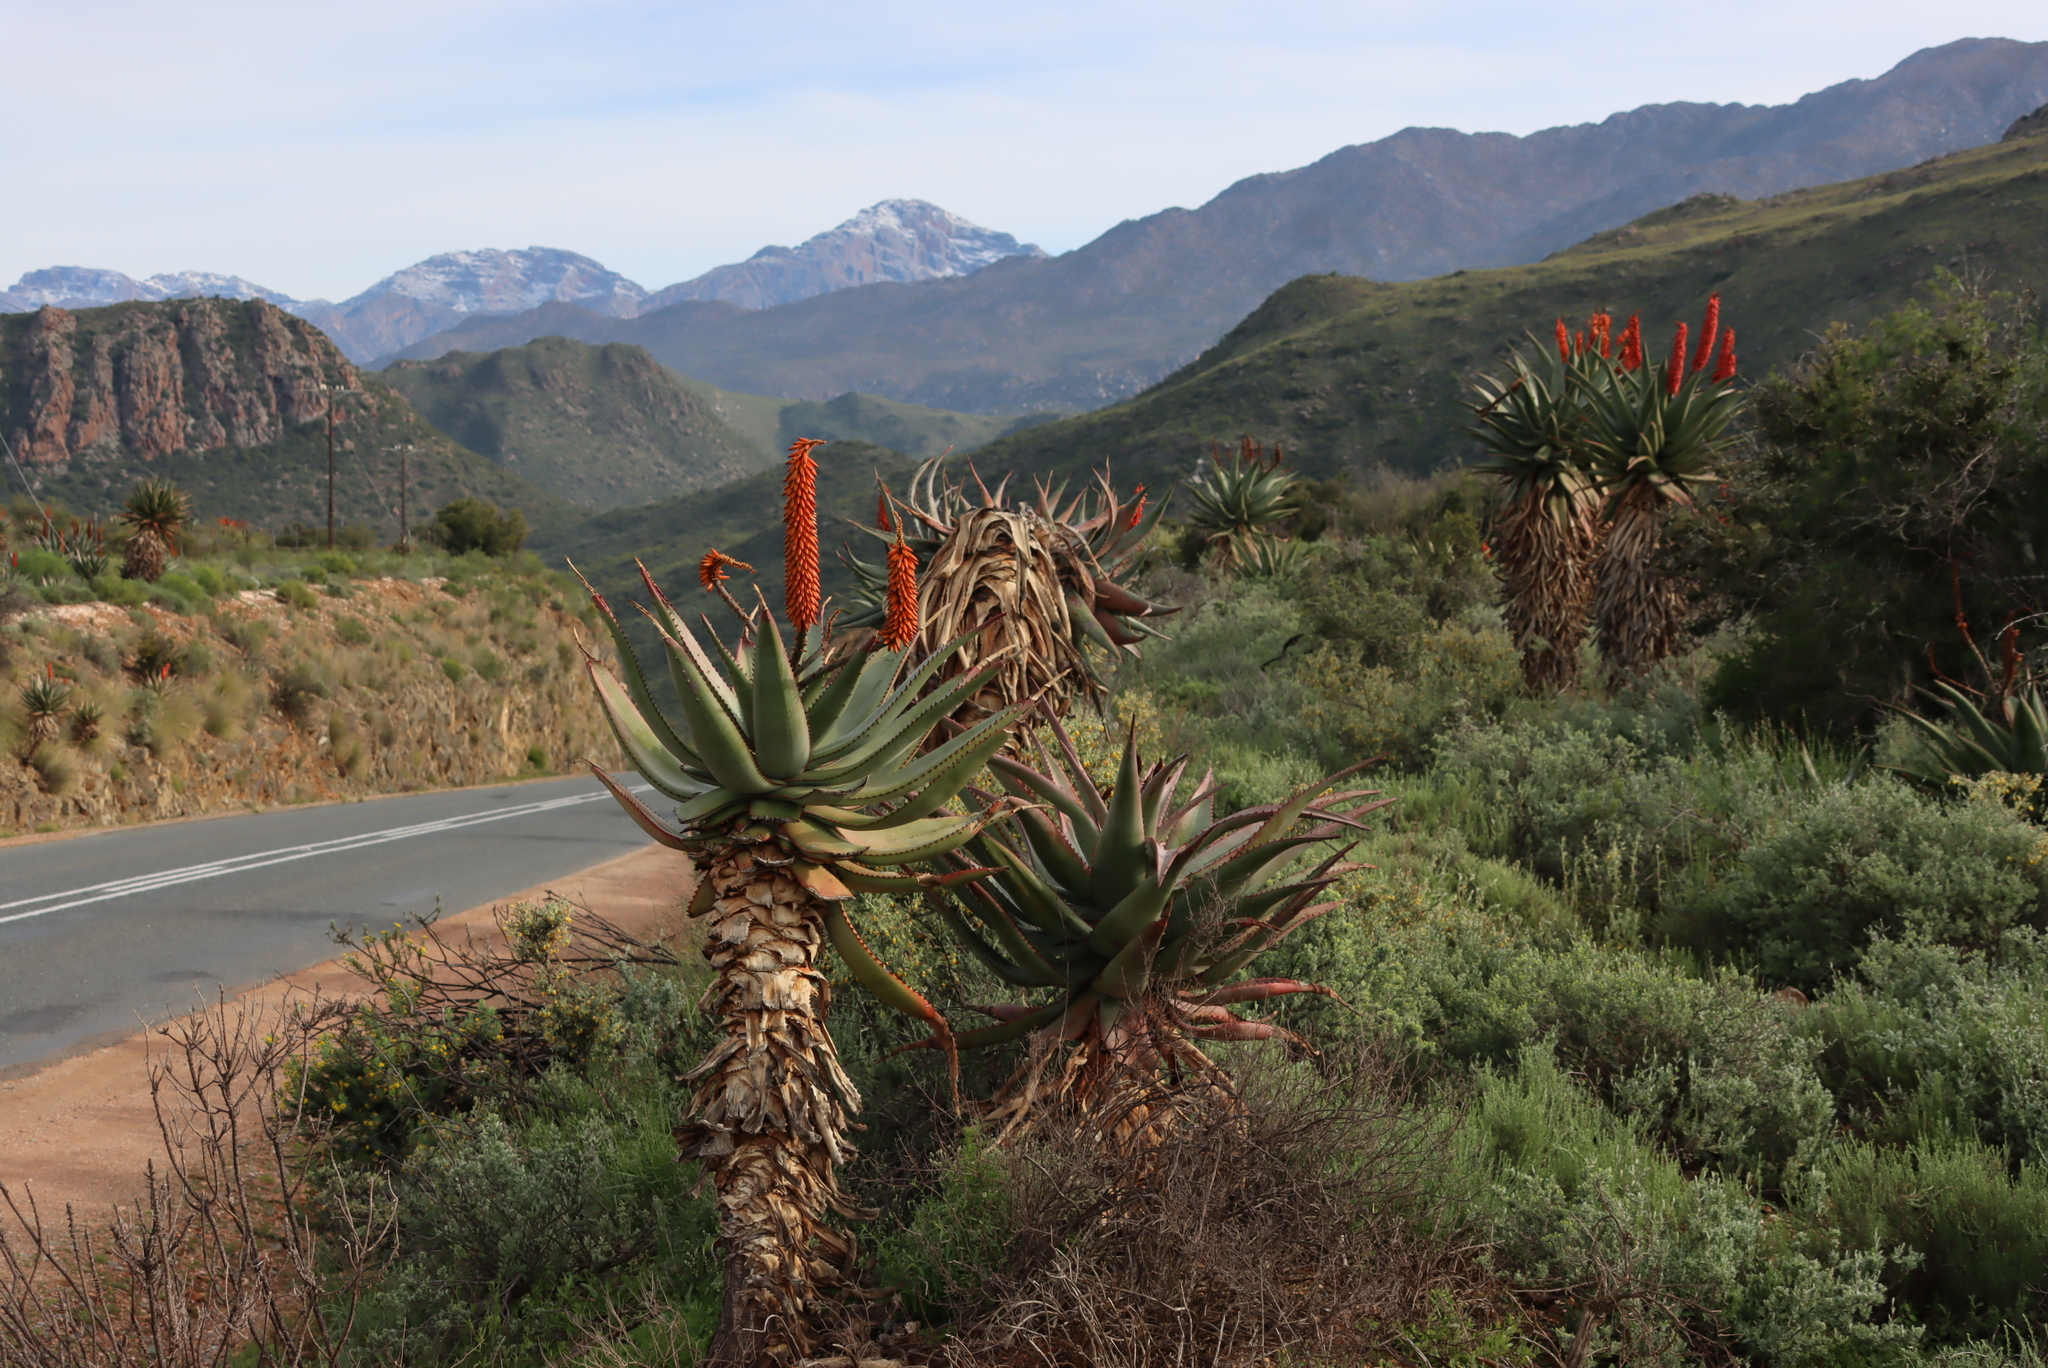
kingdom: Plantae
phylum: Tracheophyta
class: Liliopsida
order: Asparagales
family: Asphodelaceae
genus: Aloe
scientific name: Aloe ferox
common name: Bitter aloe
